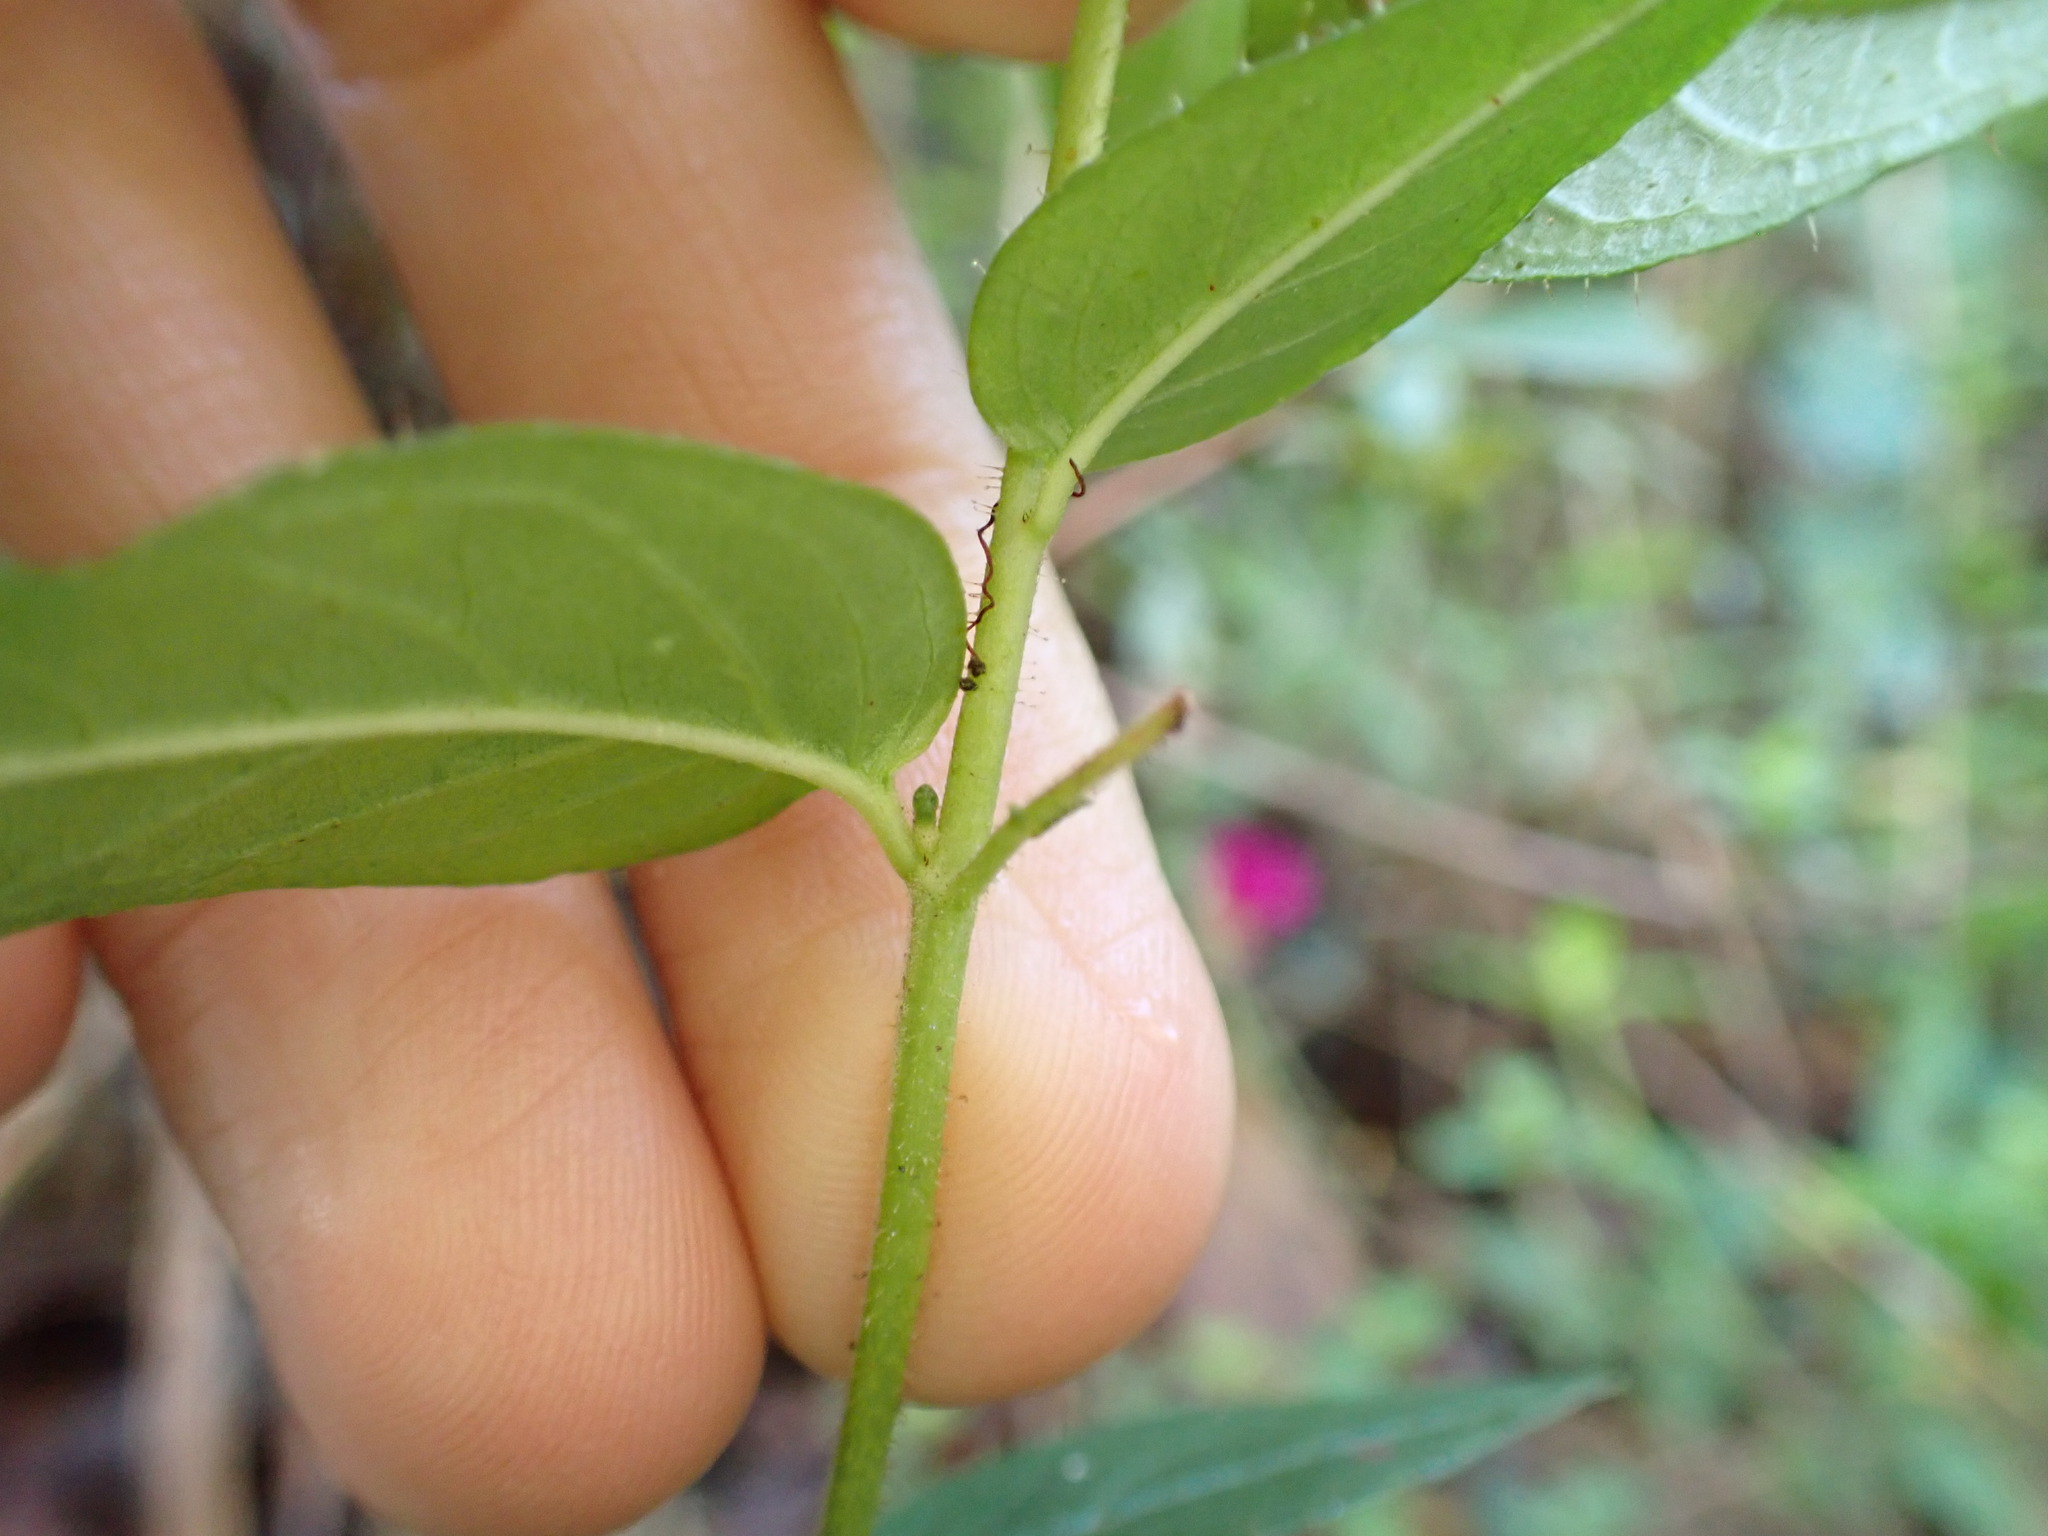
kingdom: Plantae
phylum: Tracheophyta
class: Magnoliopsida
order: Myrtales
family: Lythraceae
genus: Cuphea
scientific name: Cuphea cordata
